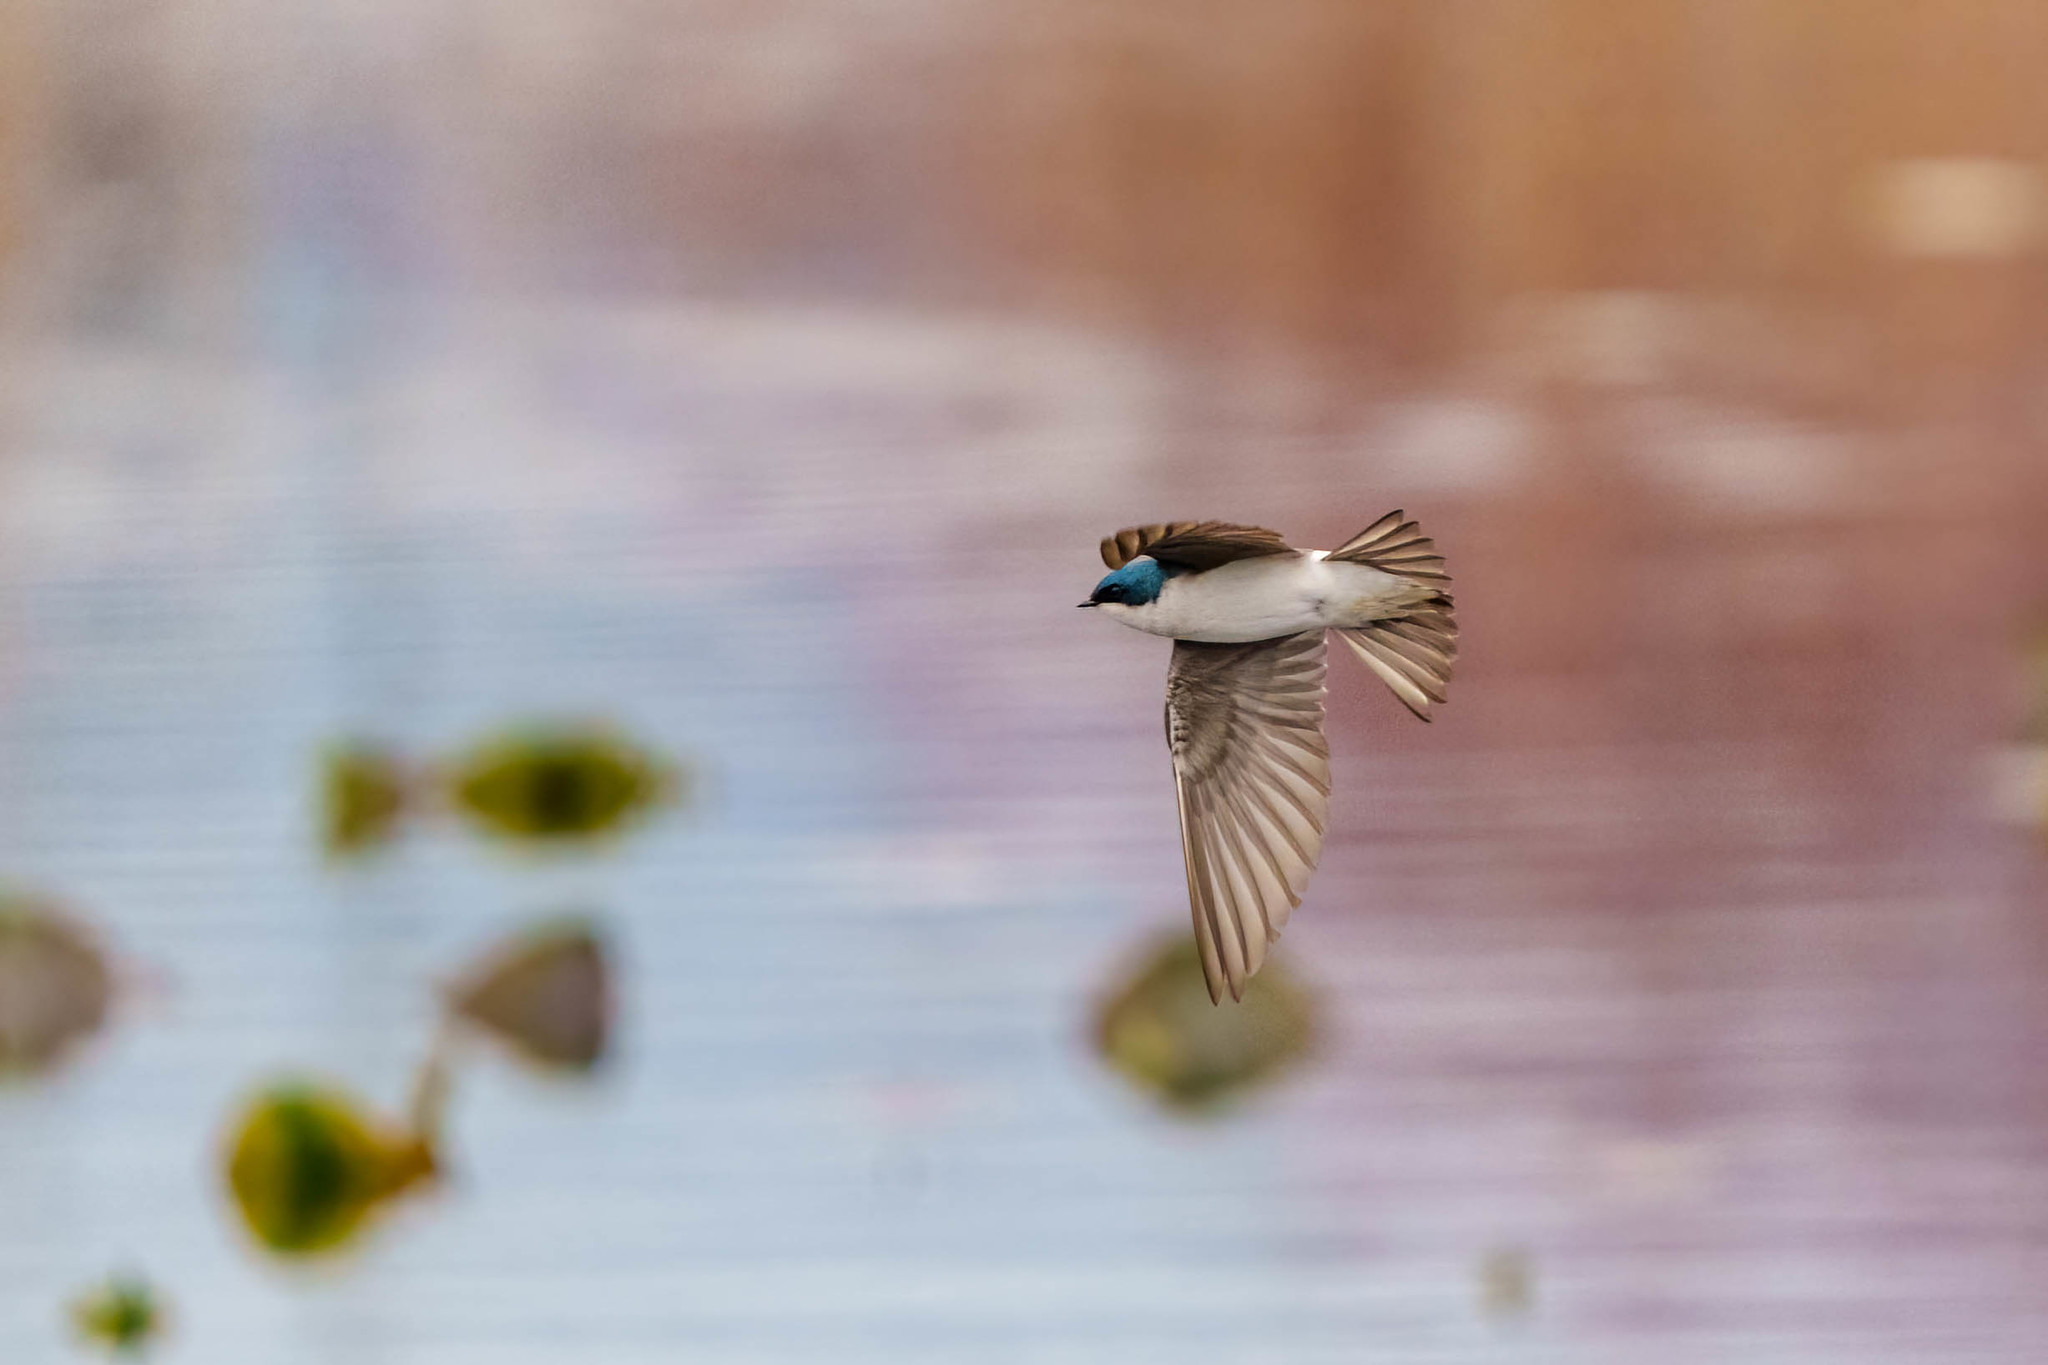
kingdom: Animalia
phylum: Chordata
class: Aves
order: Passeriformes
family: Hirundinidae
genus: Tachycineta
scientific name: Tachycineta bicolor
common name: Tree swallow
